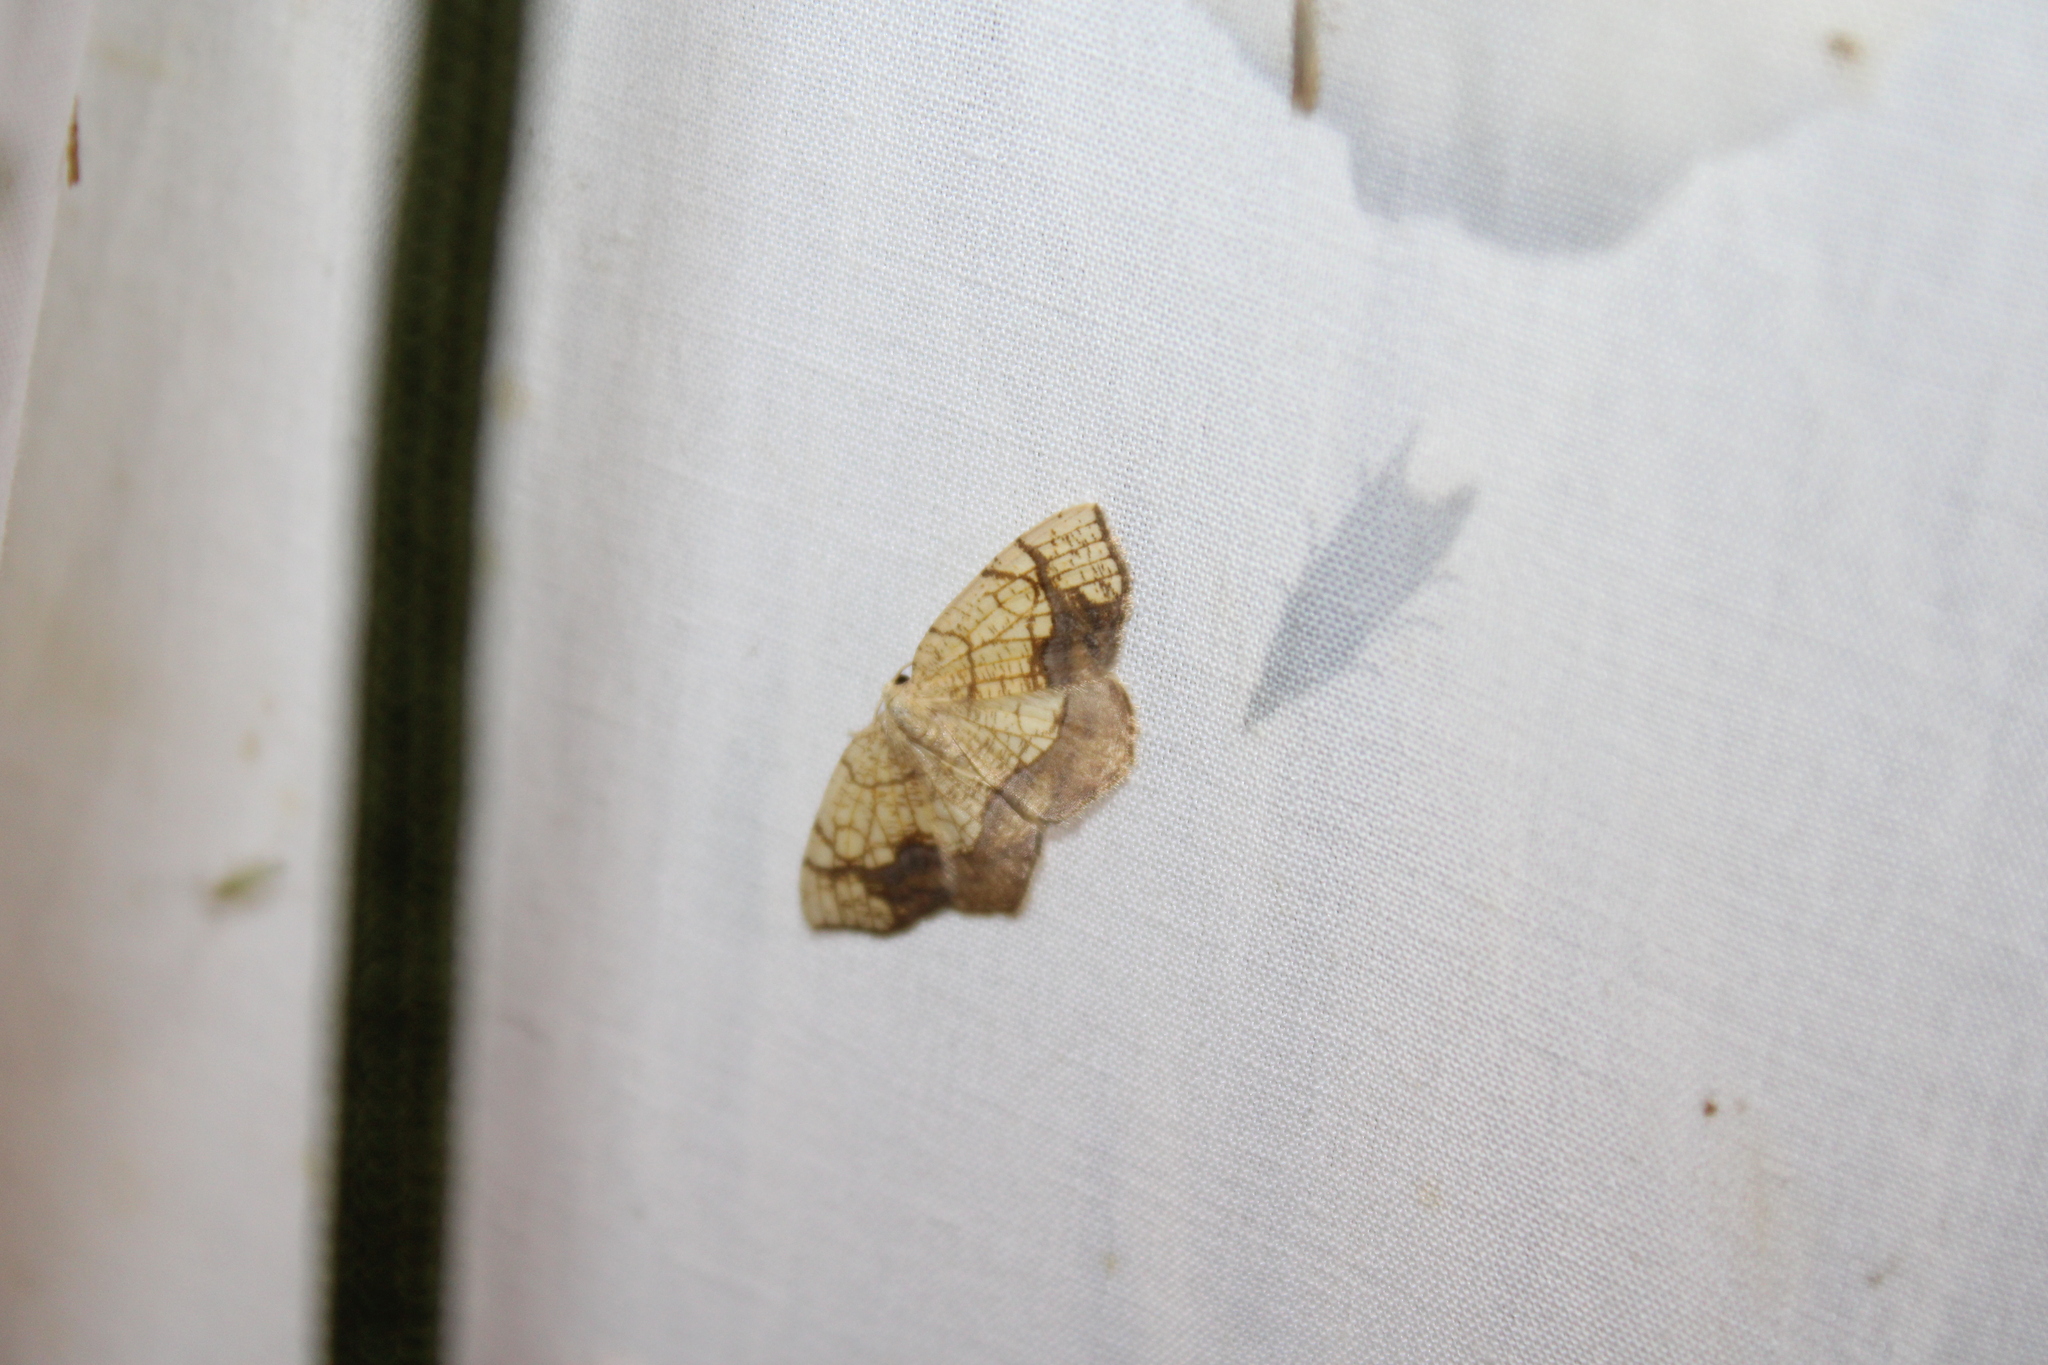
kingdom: Animalia
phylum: Arthropoda
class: Insecta
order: Lepidoptera
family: Geometridae
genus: Nematocampa
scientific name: Nematocampa resistaria
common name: Horned spanworm moth
